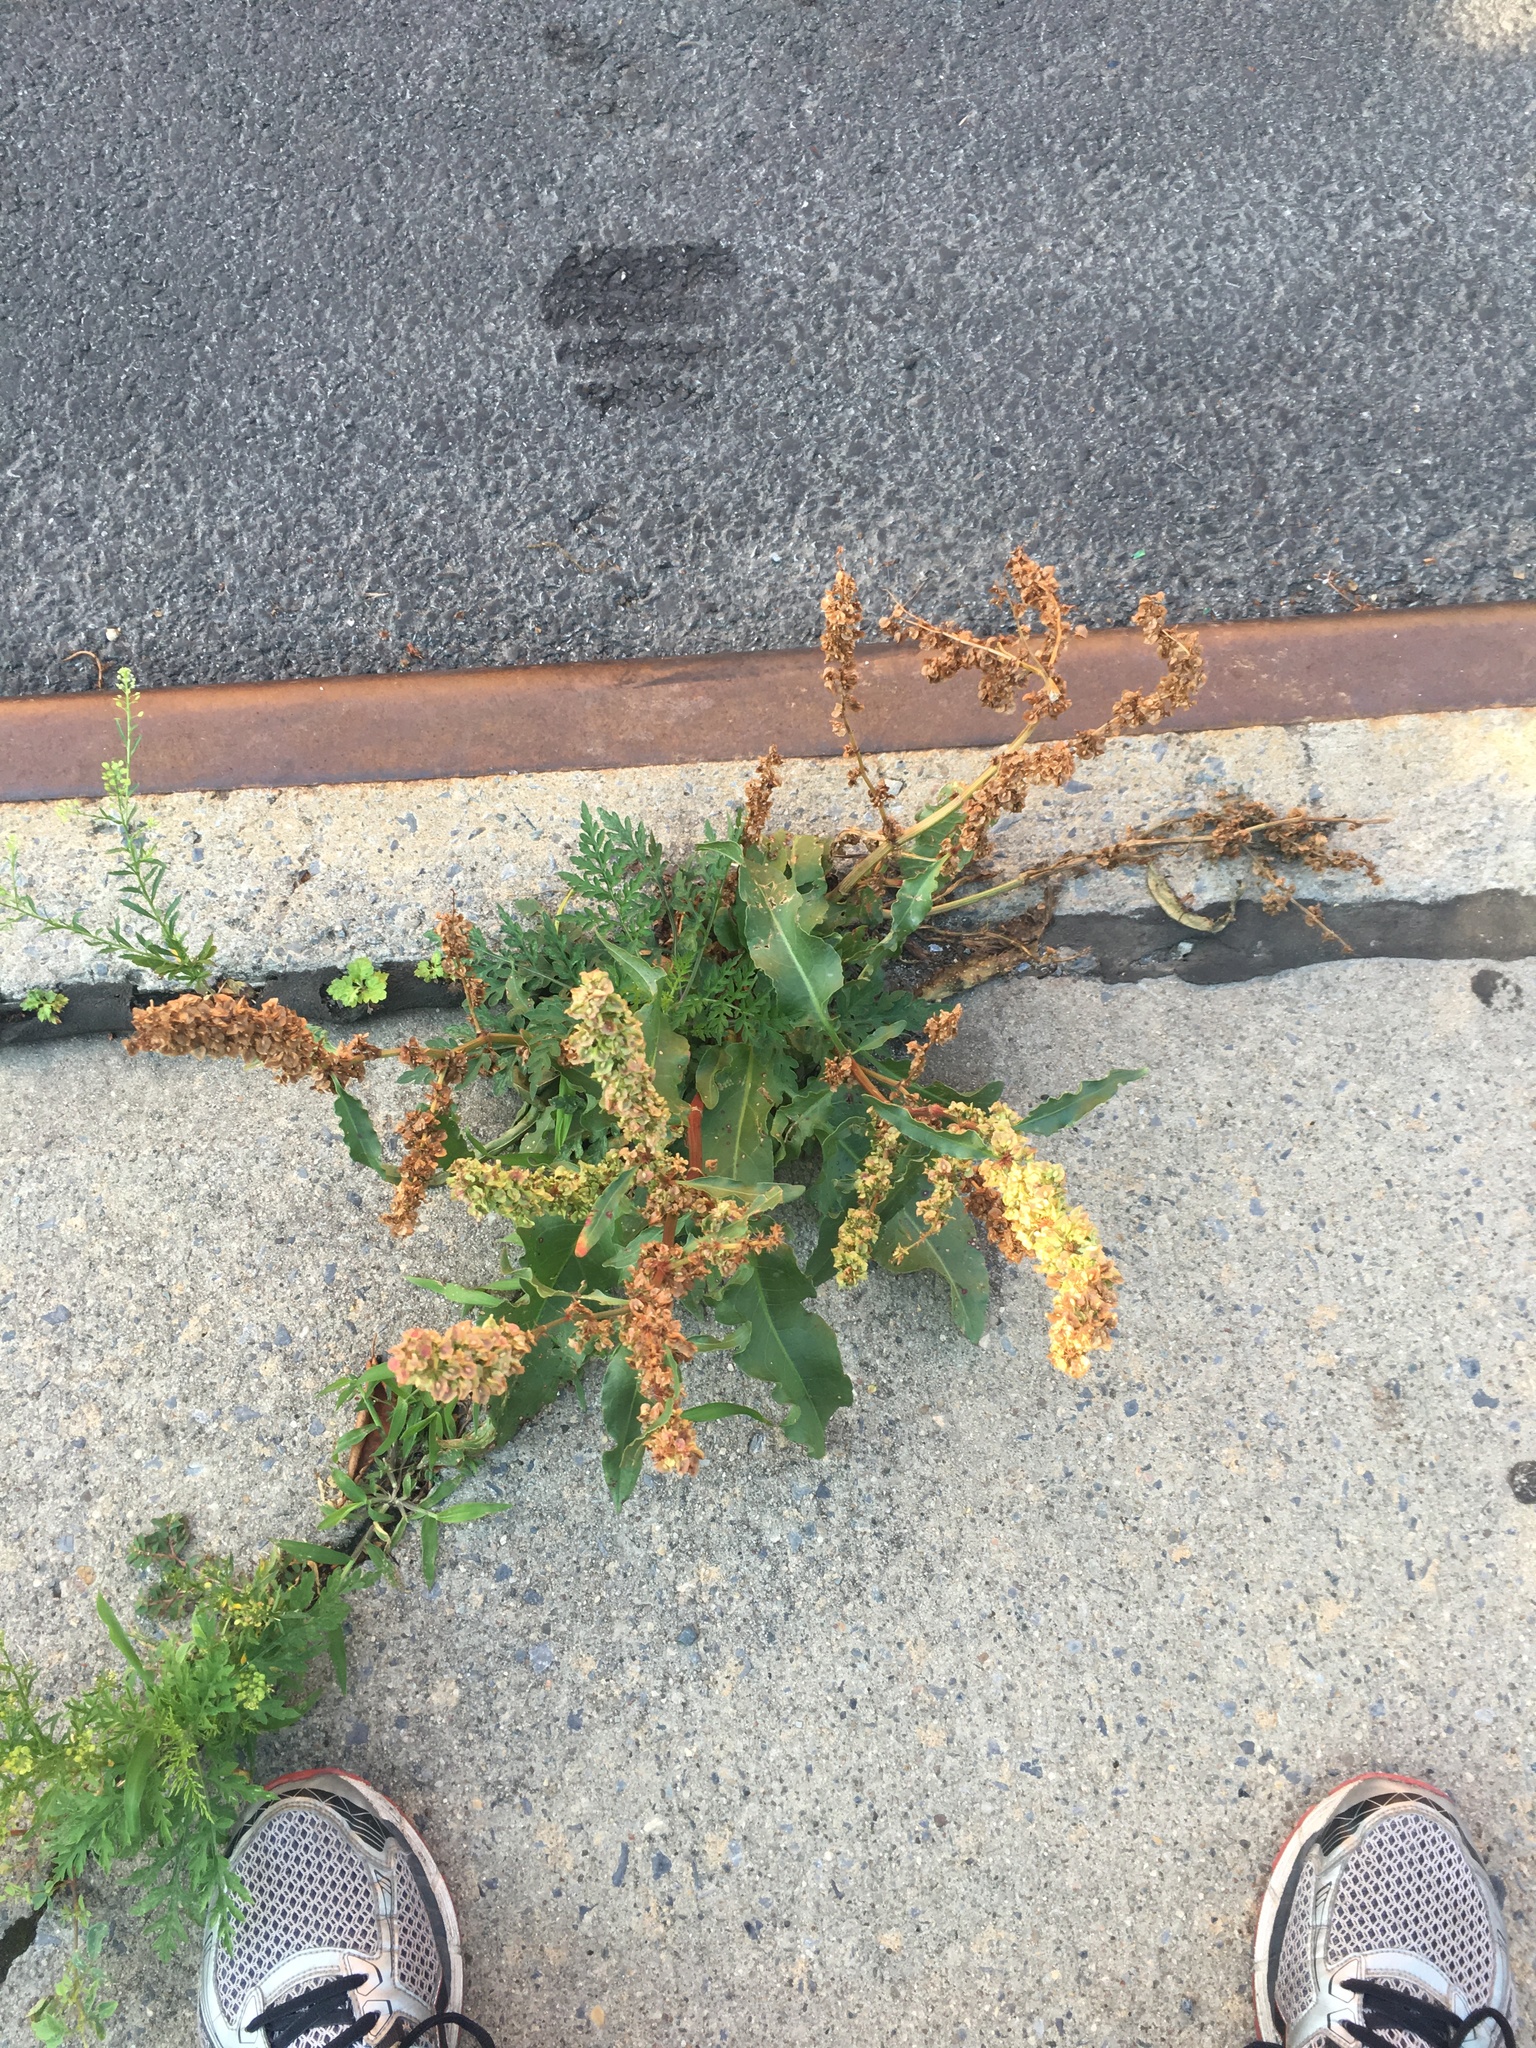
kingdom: Plantae
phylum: Tracheophyta
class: Magnoliopsida
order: Caryophyllales
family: Polygonaceae
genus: Rumex
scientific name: Rumex crispus
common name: Curled dock
